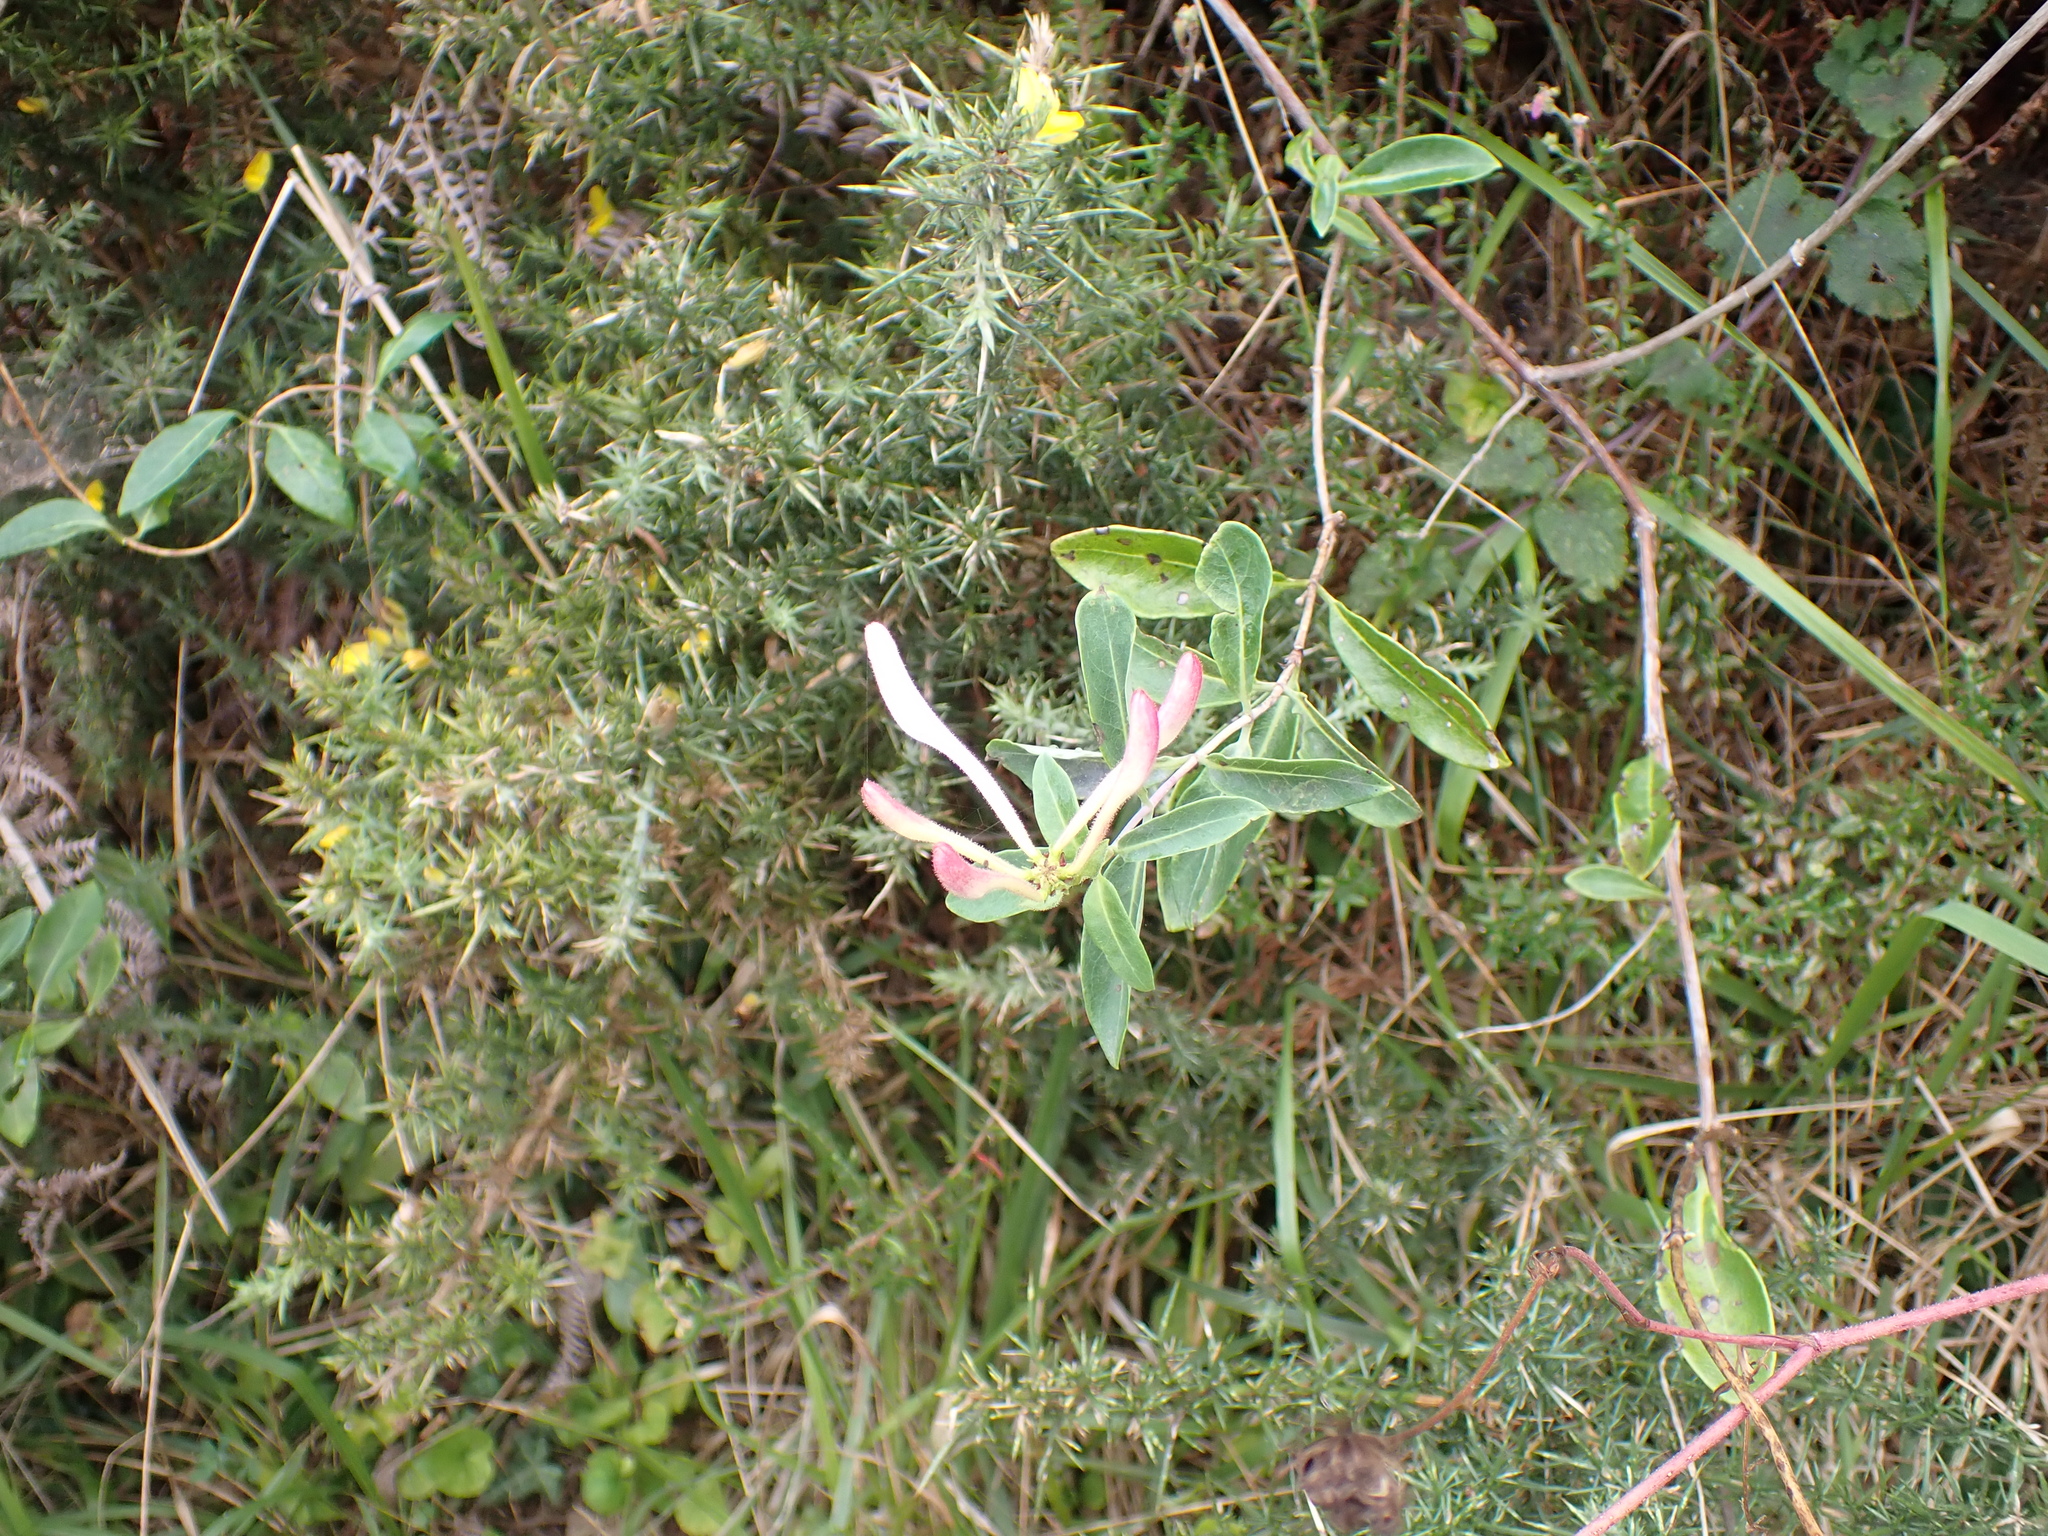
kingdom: Plantae
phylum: Tracheophyta
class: Magnoliopsida
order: Dipsacales
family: Caprifoliaceae
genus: Lonicera
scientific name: Lonicera periclymenum
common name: European honeysuckle
